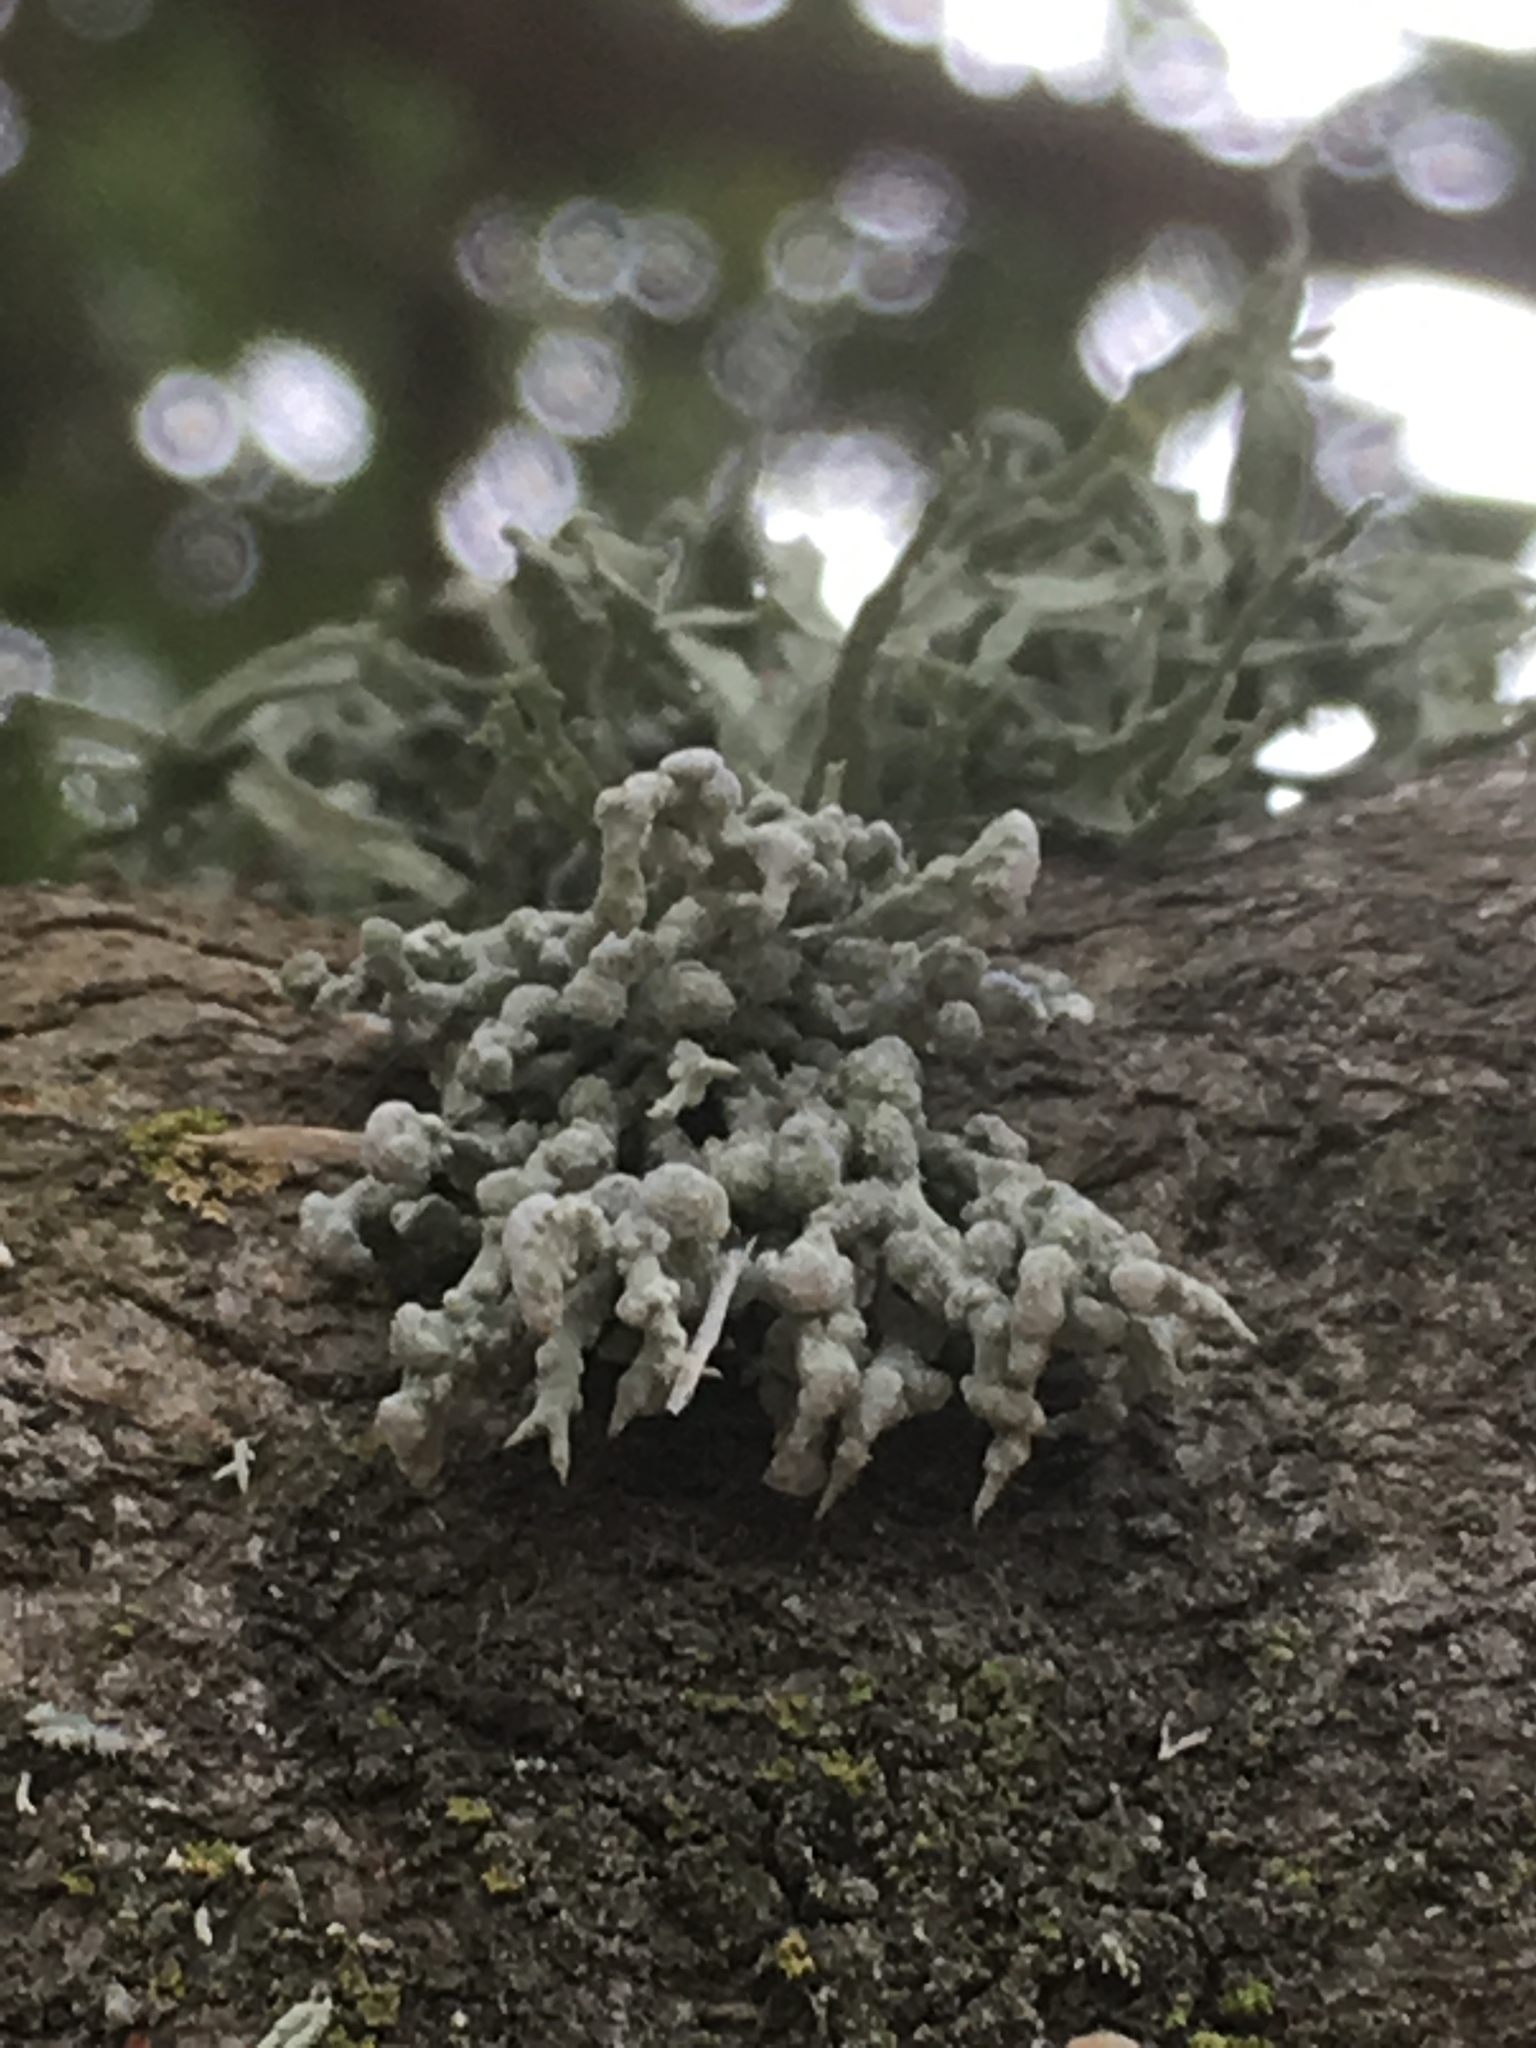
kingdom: Fungi
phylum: Ascomycota
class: Lecanoromycetes
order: Lecanorales
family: Ramalinaceae
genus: Niebla
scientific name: Niebla cephalota
